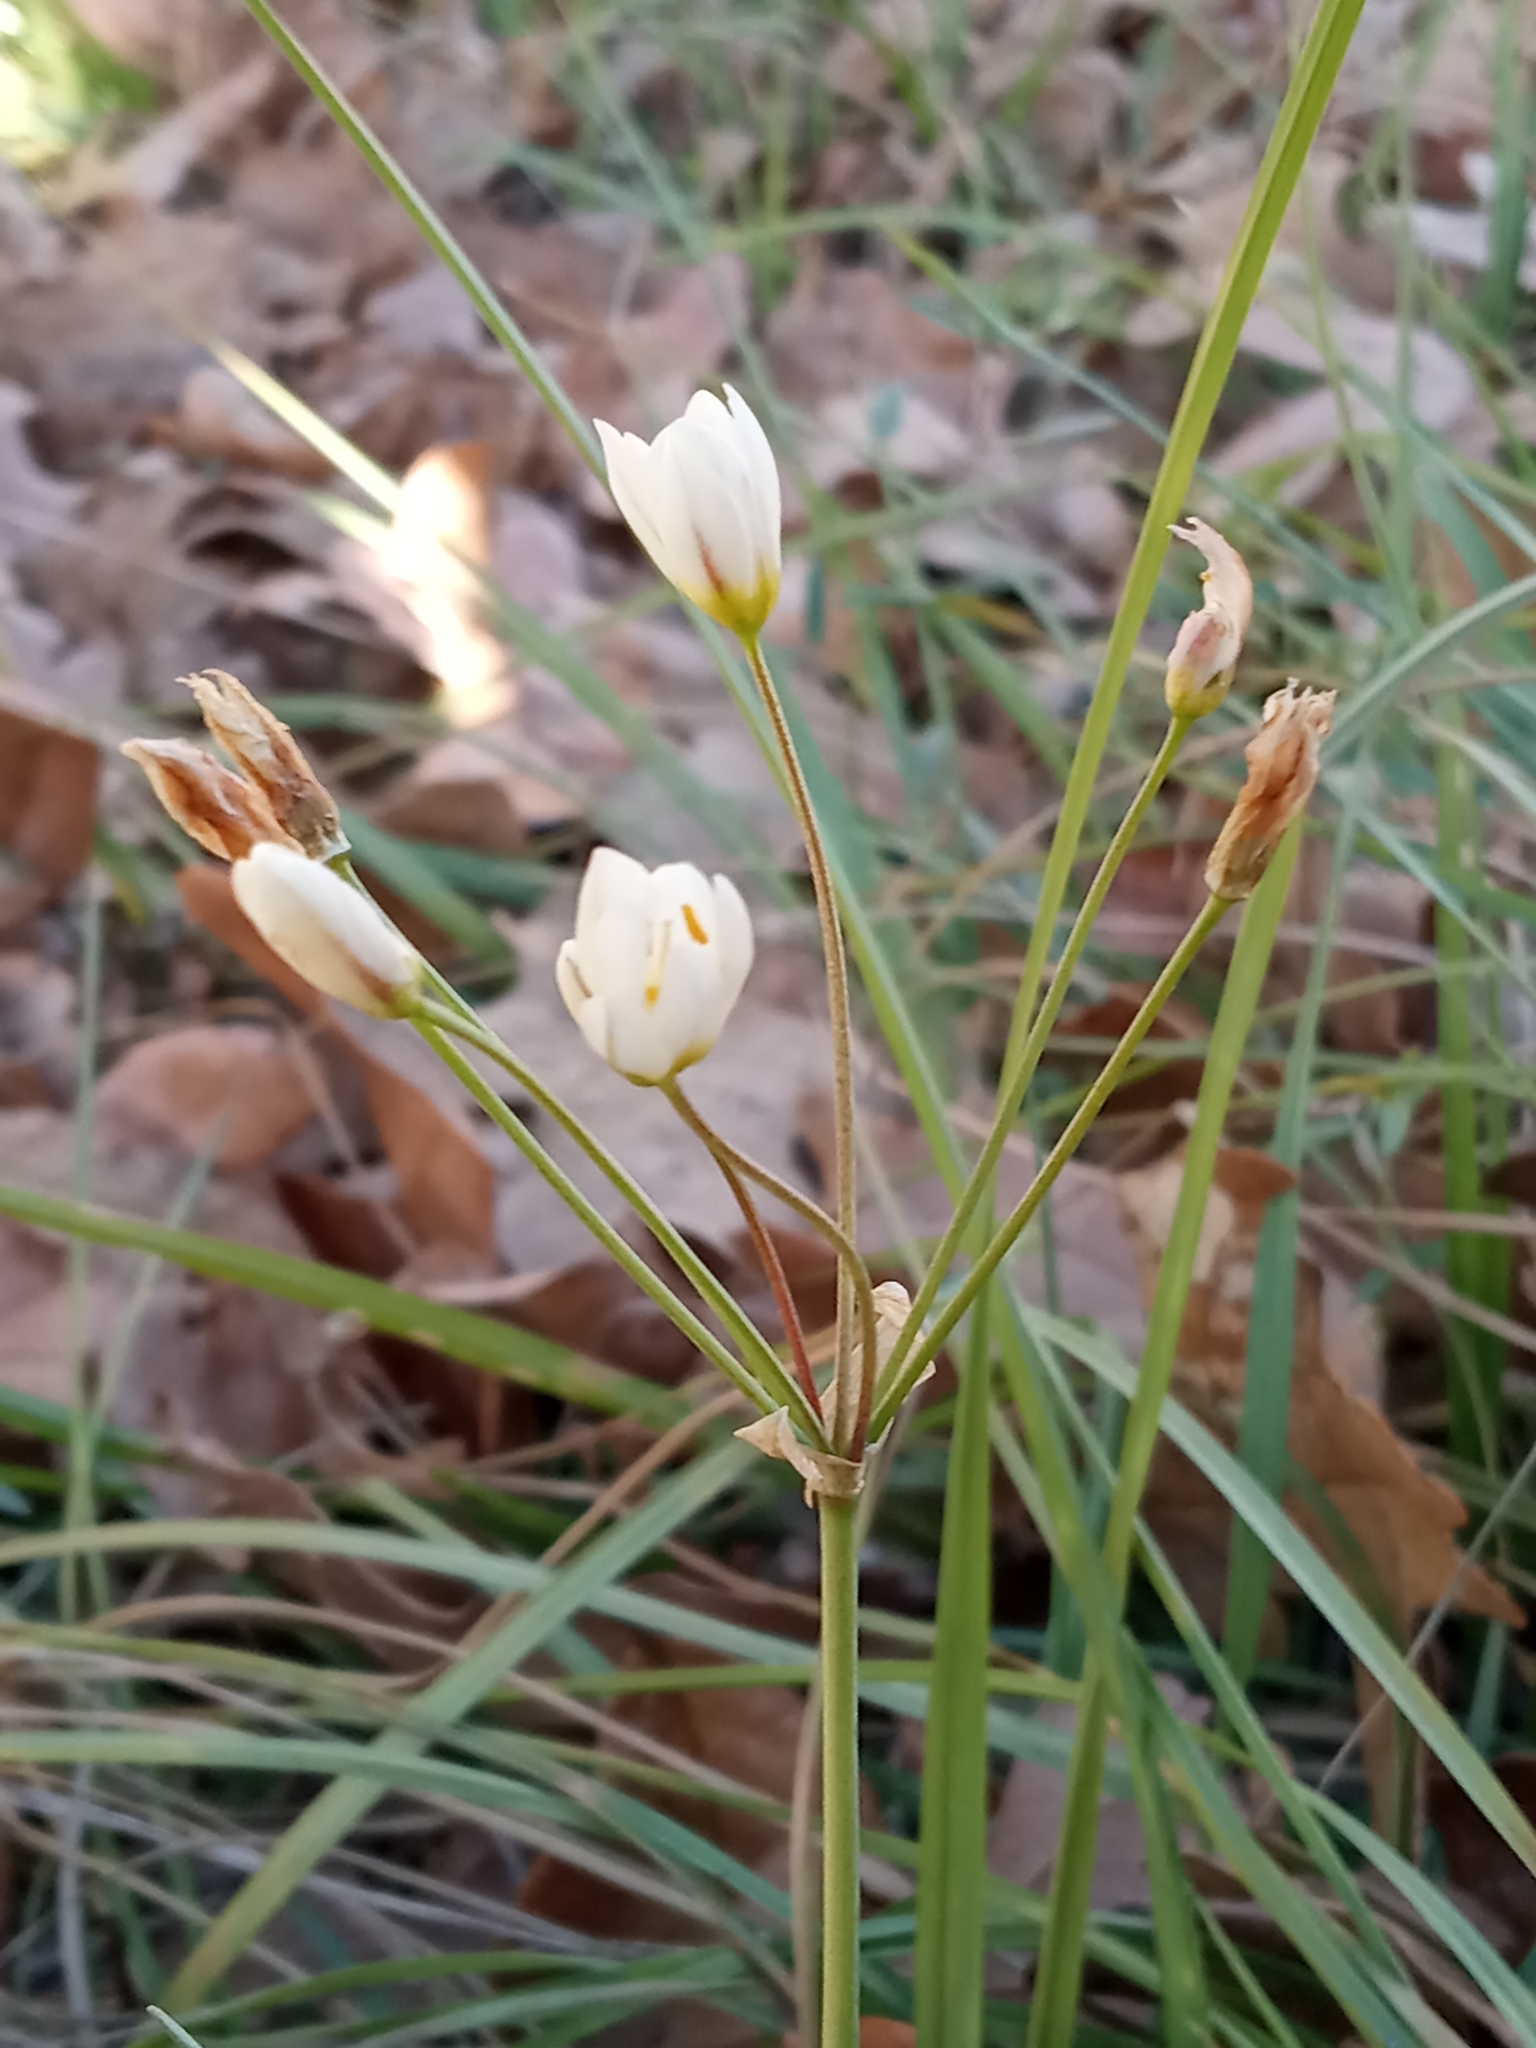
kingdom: Plantae
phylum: Tracheophyta
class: Liliopsida
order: Asparagales
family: Amaryllidaceae
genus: Nothoscordum
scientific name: Nothoscordum bivalve
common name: Crow-poison
